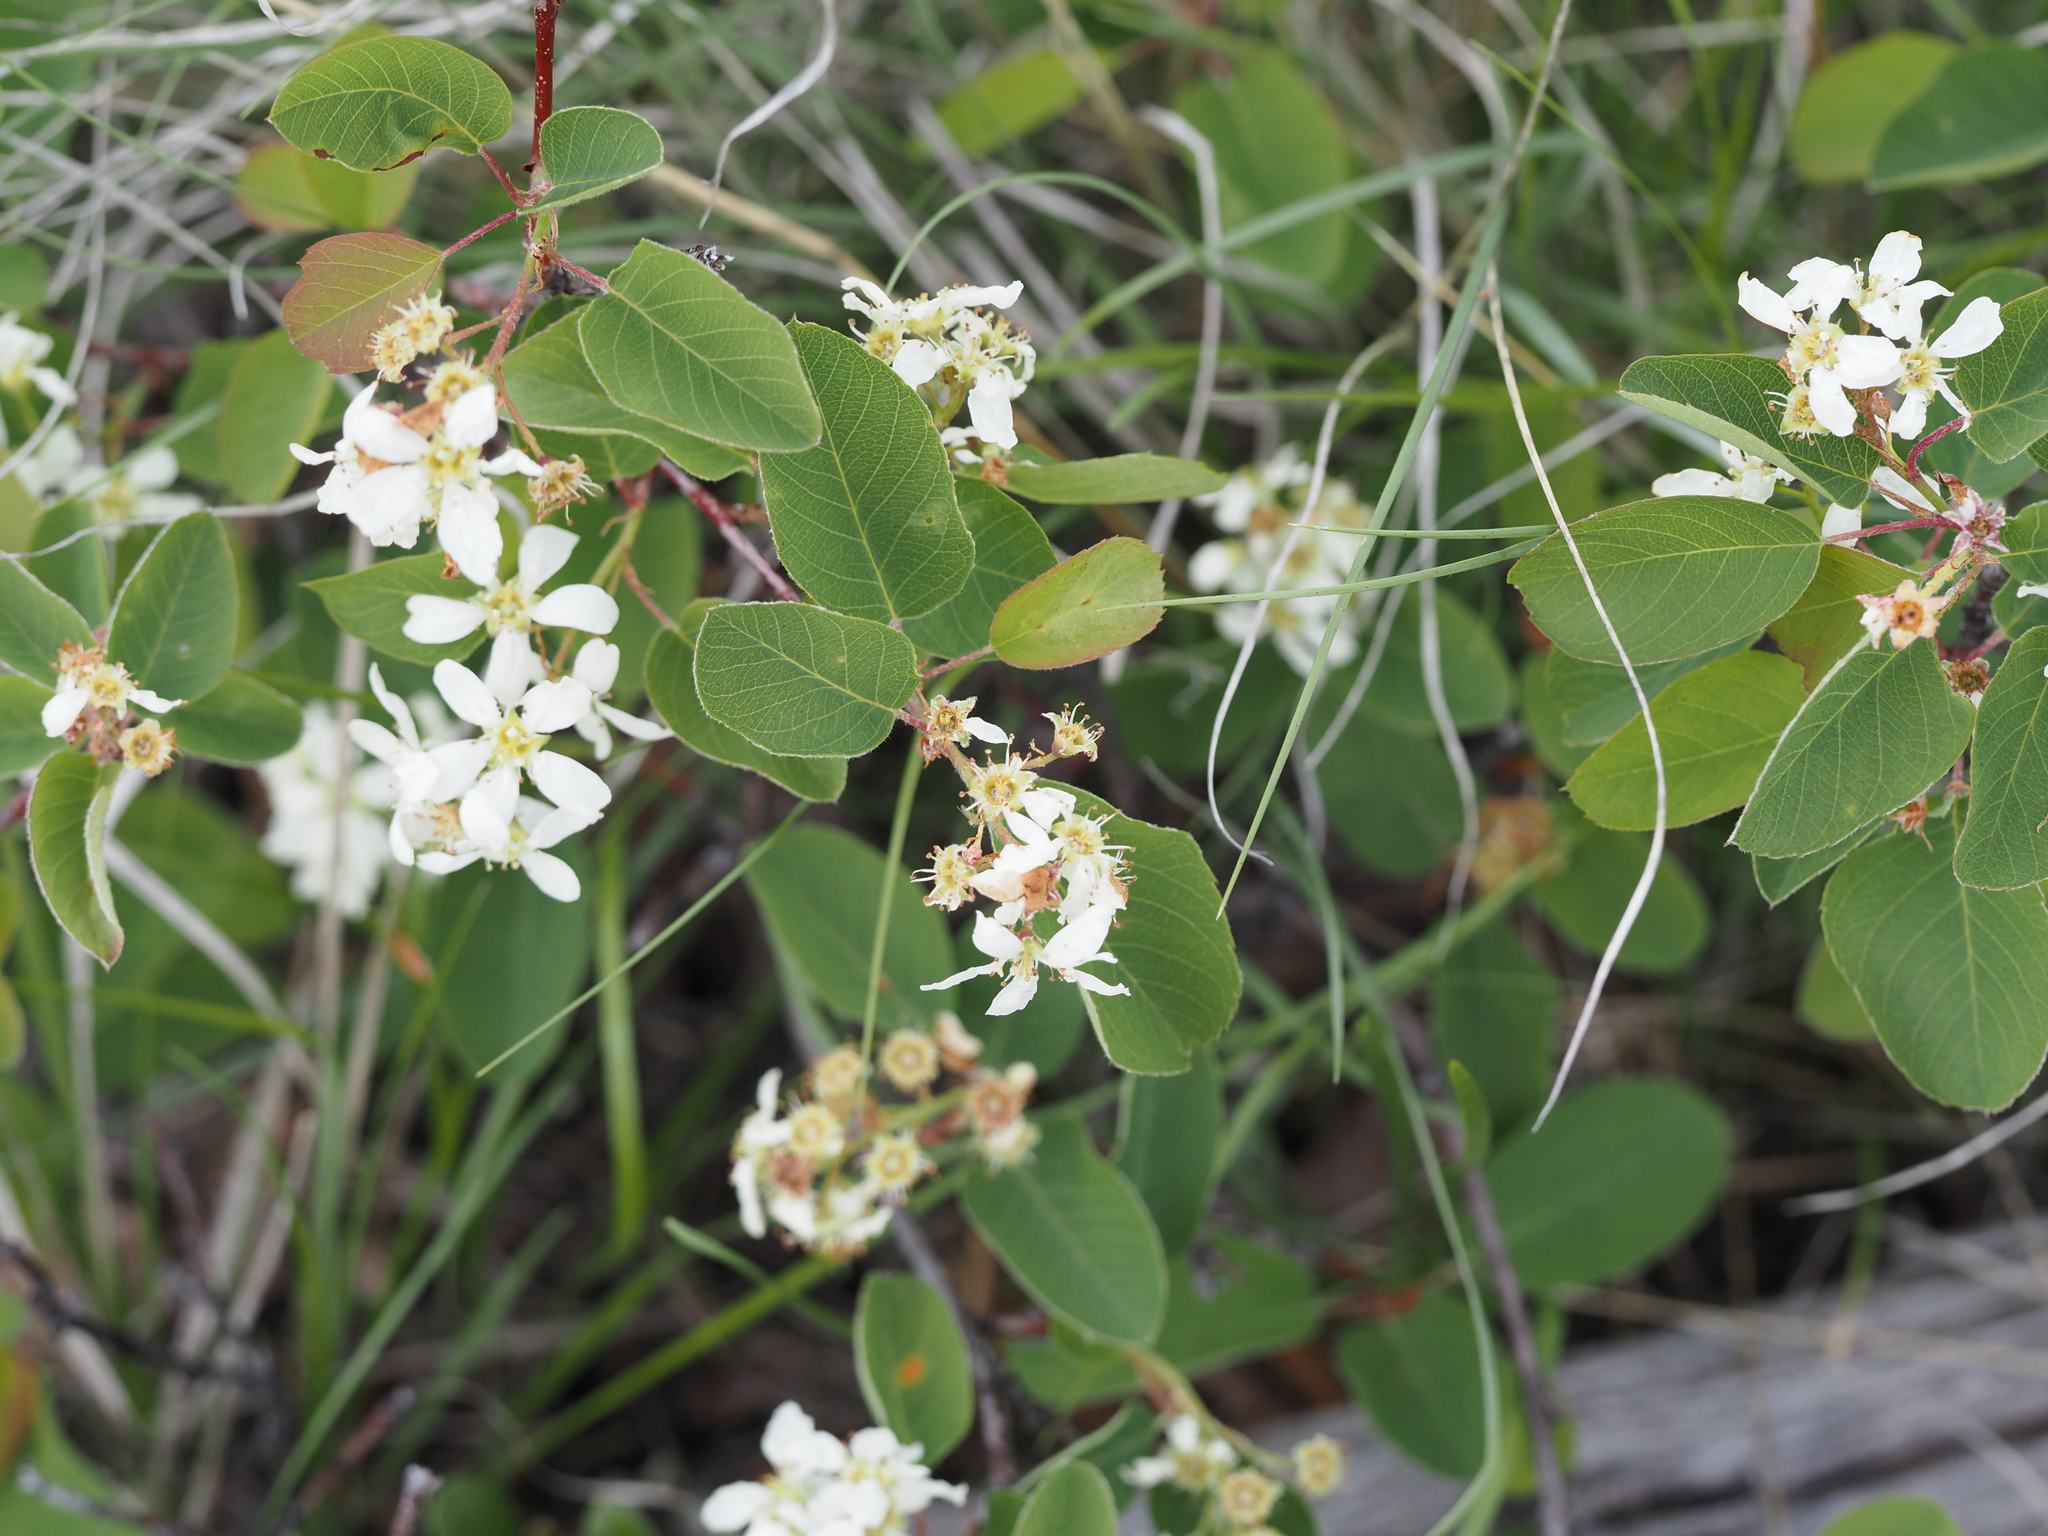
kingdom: Plantae
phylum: Tracheophyta
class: Magnoliopsida
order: Rosales
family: Rosaceae
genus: Amelanchier
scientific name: Amelanchier alnifolia
